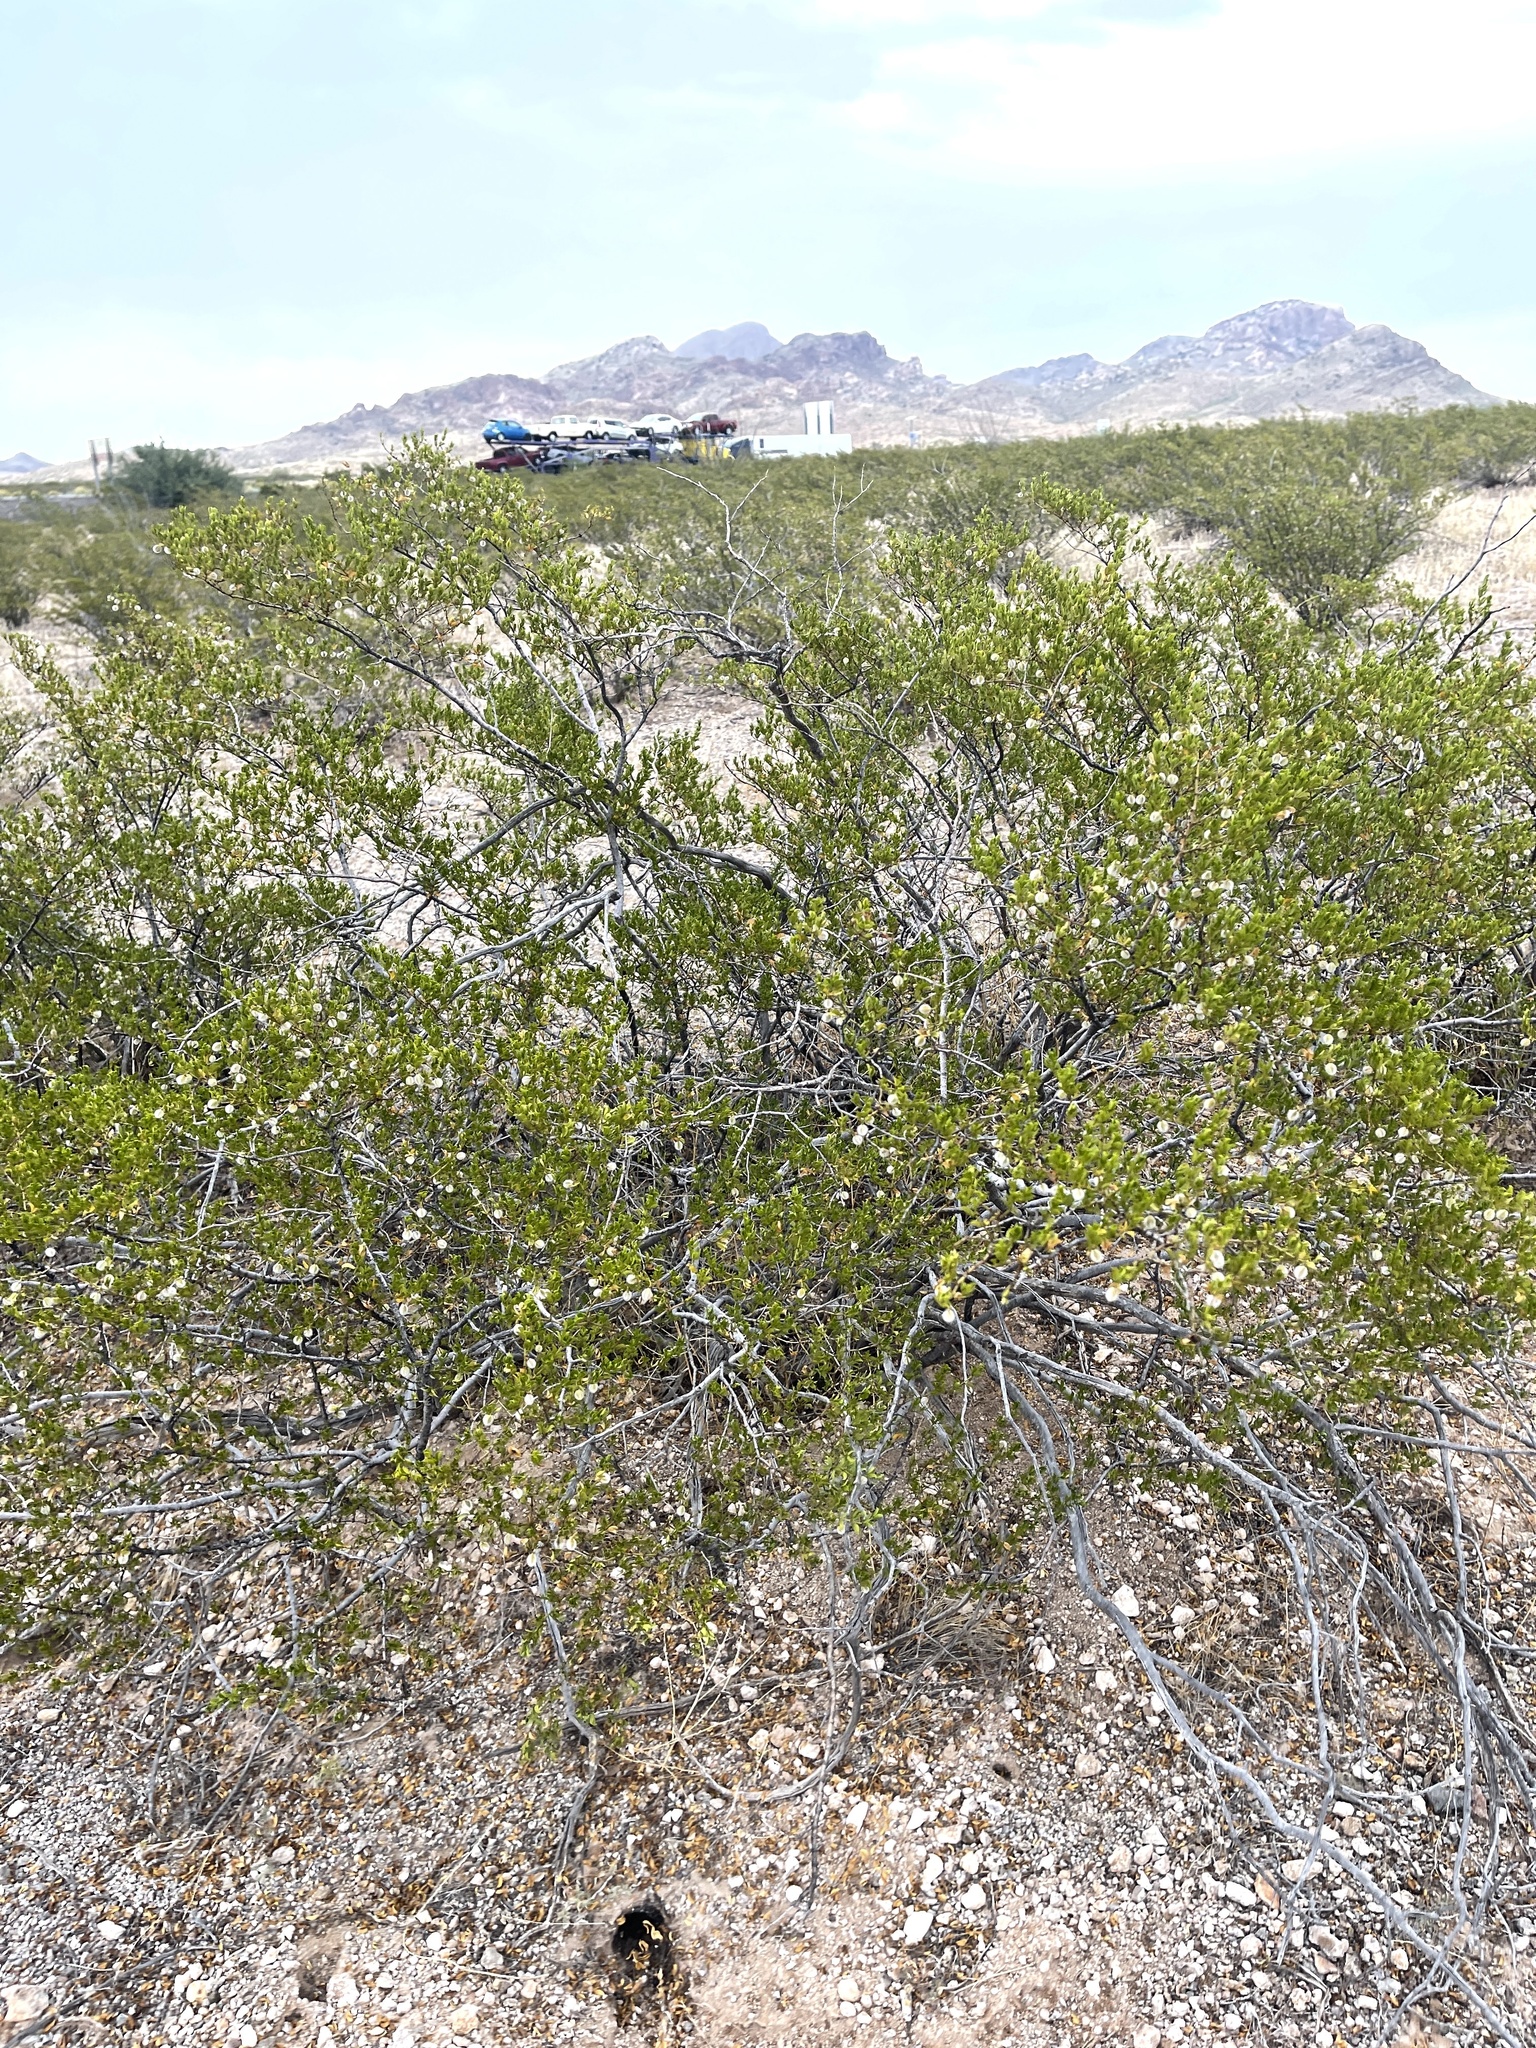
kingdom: Plantae
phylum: Tracheophyta
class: Magnoliopsida
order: Zygophyllales
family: Zygophyllaceae
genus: Larrea
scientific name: Larrea tridentata
